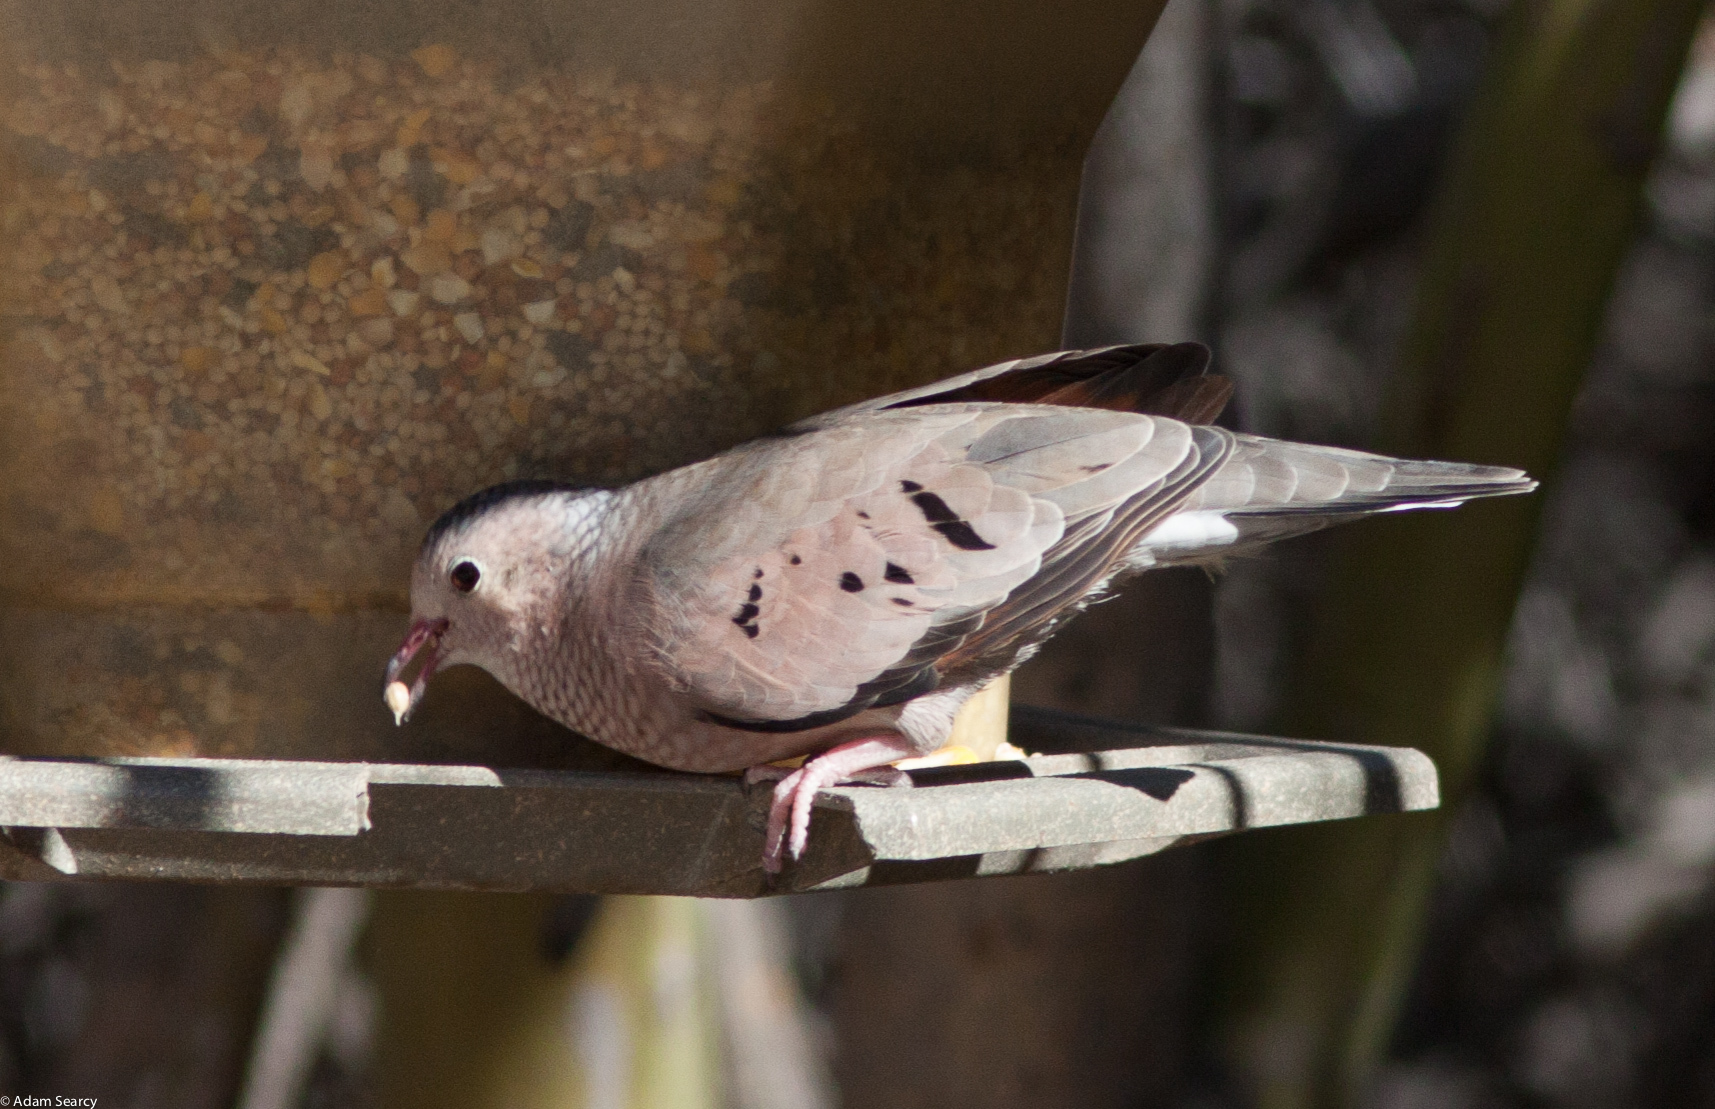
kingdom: Animalia
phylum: Chordata
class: Aves
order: Columbiformes
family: Columbidae
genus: Columbina
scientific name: Columbina passerina
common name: Common ground-dove
